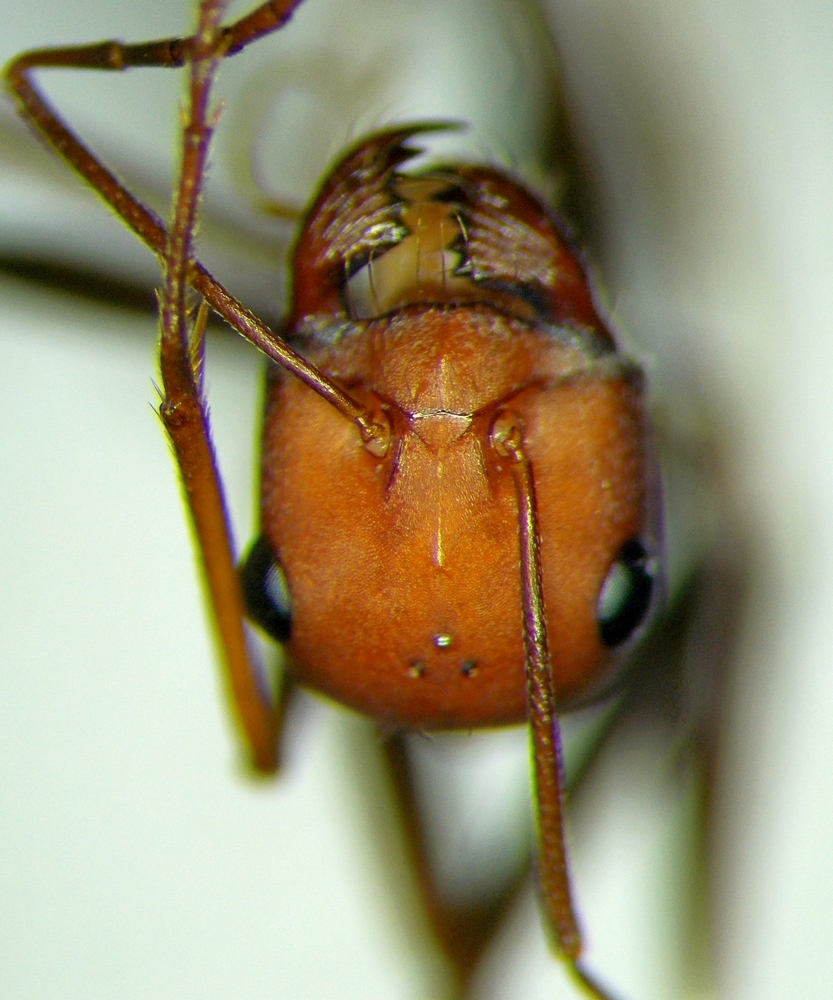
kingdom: Animalia
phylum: Arthropoda
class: Insecta
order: Hymenoptera
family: Formicidae
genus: Cataglyphis
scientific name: Cataglyphis aphrodite
